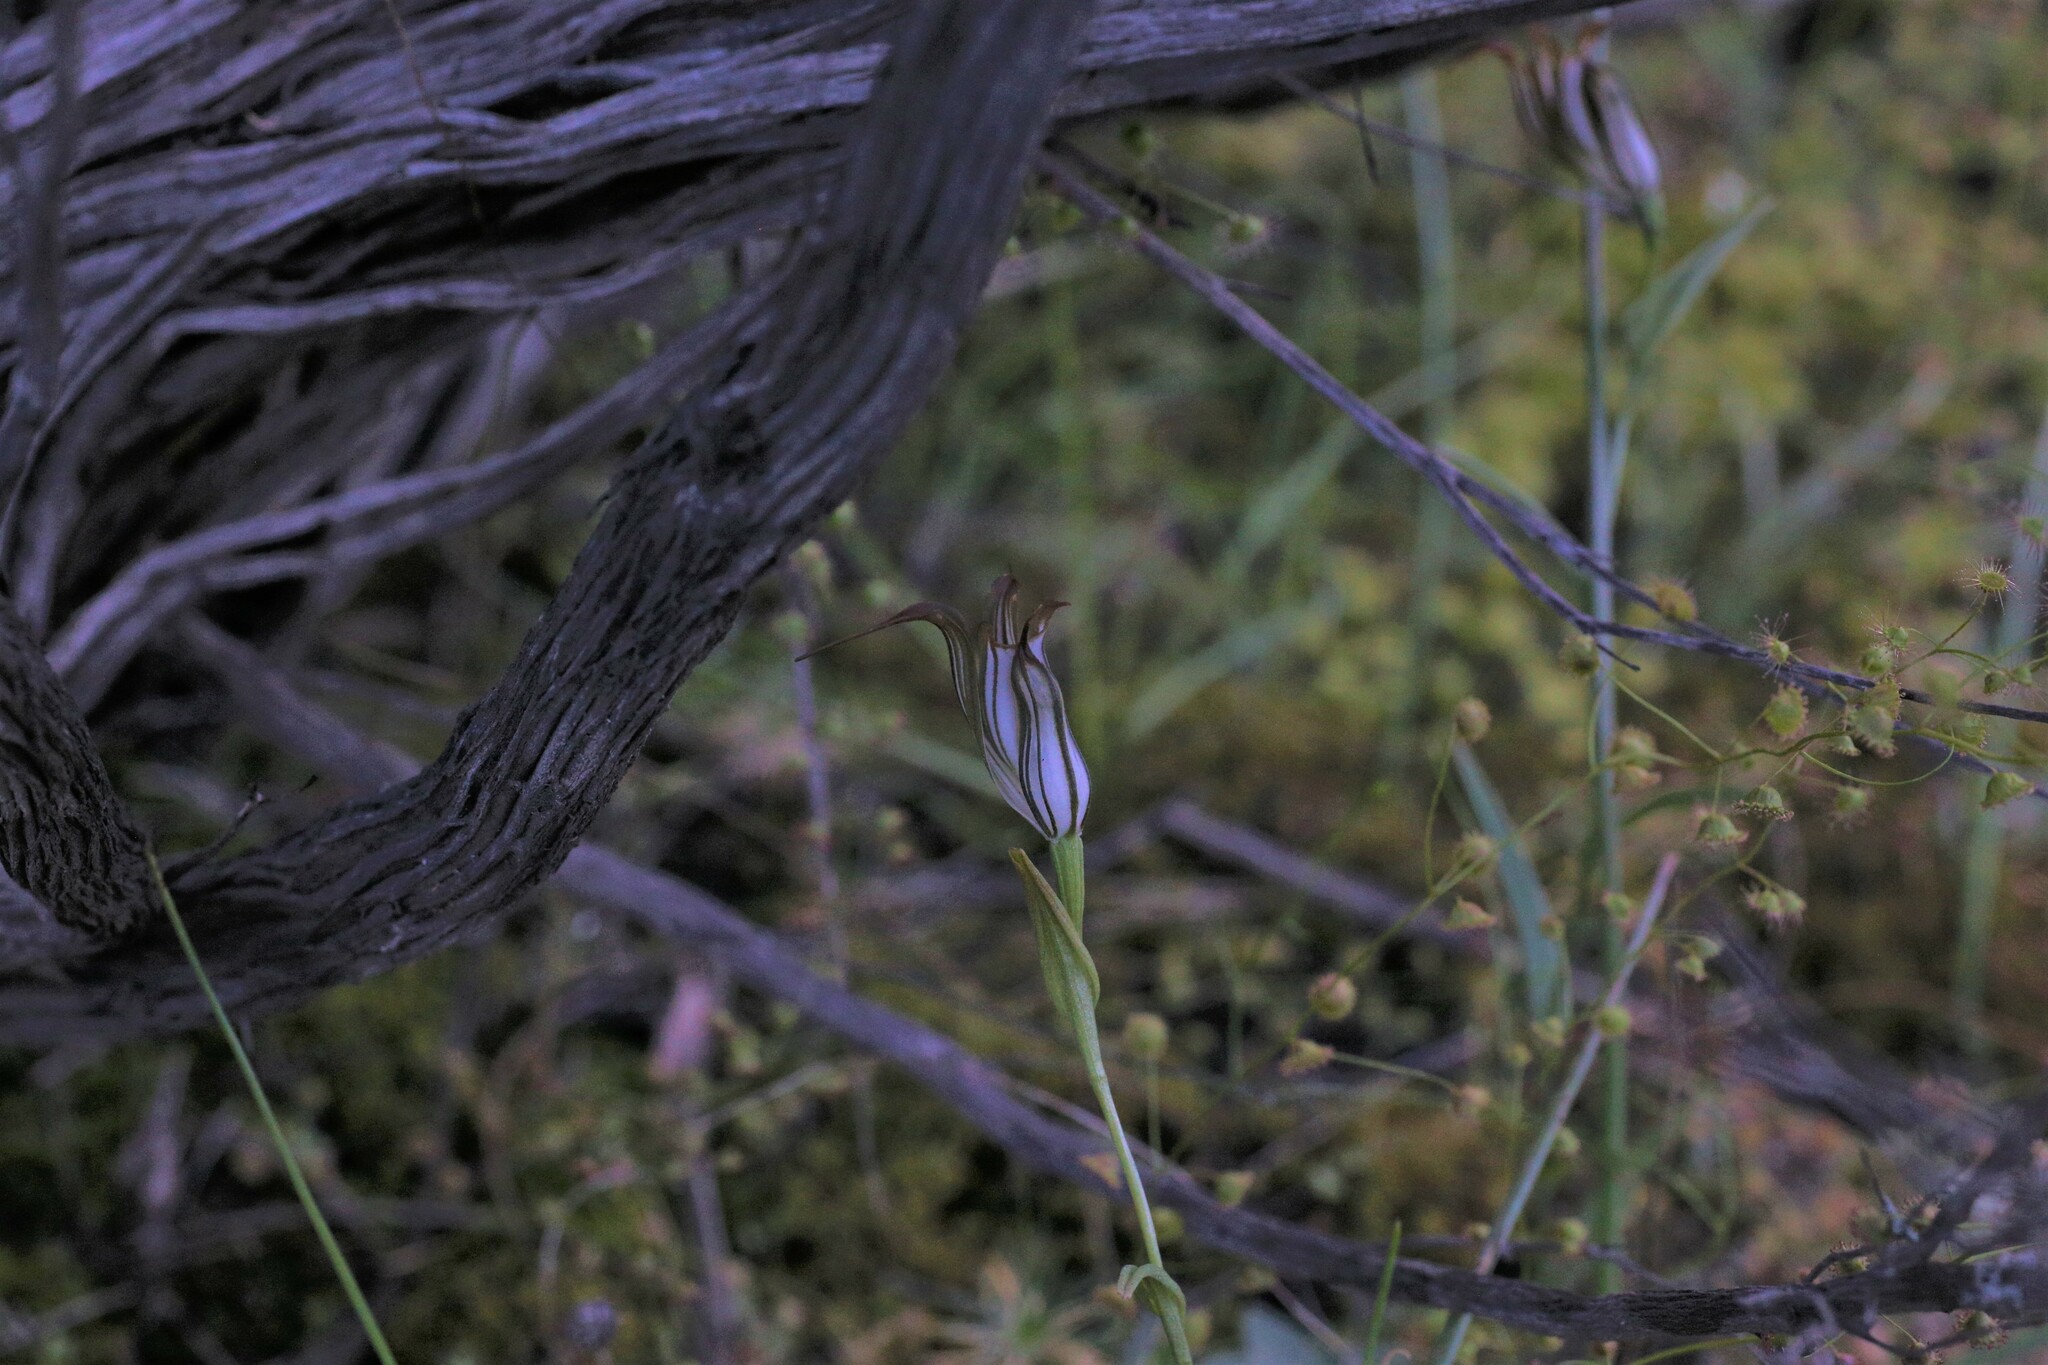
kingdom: Plantae
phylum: Tracheophyta
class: Liliopsida
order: Asparagales
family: Orchidaceae
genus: Pterostylis
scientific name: Pterostylis recurva
